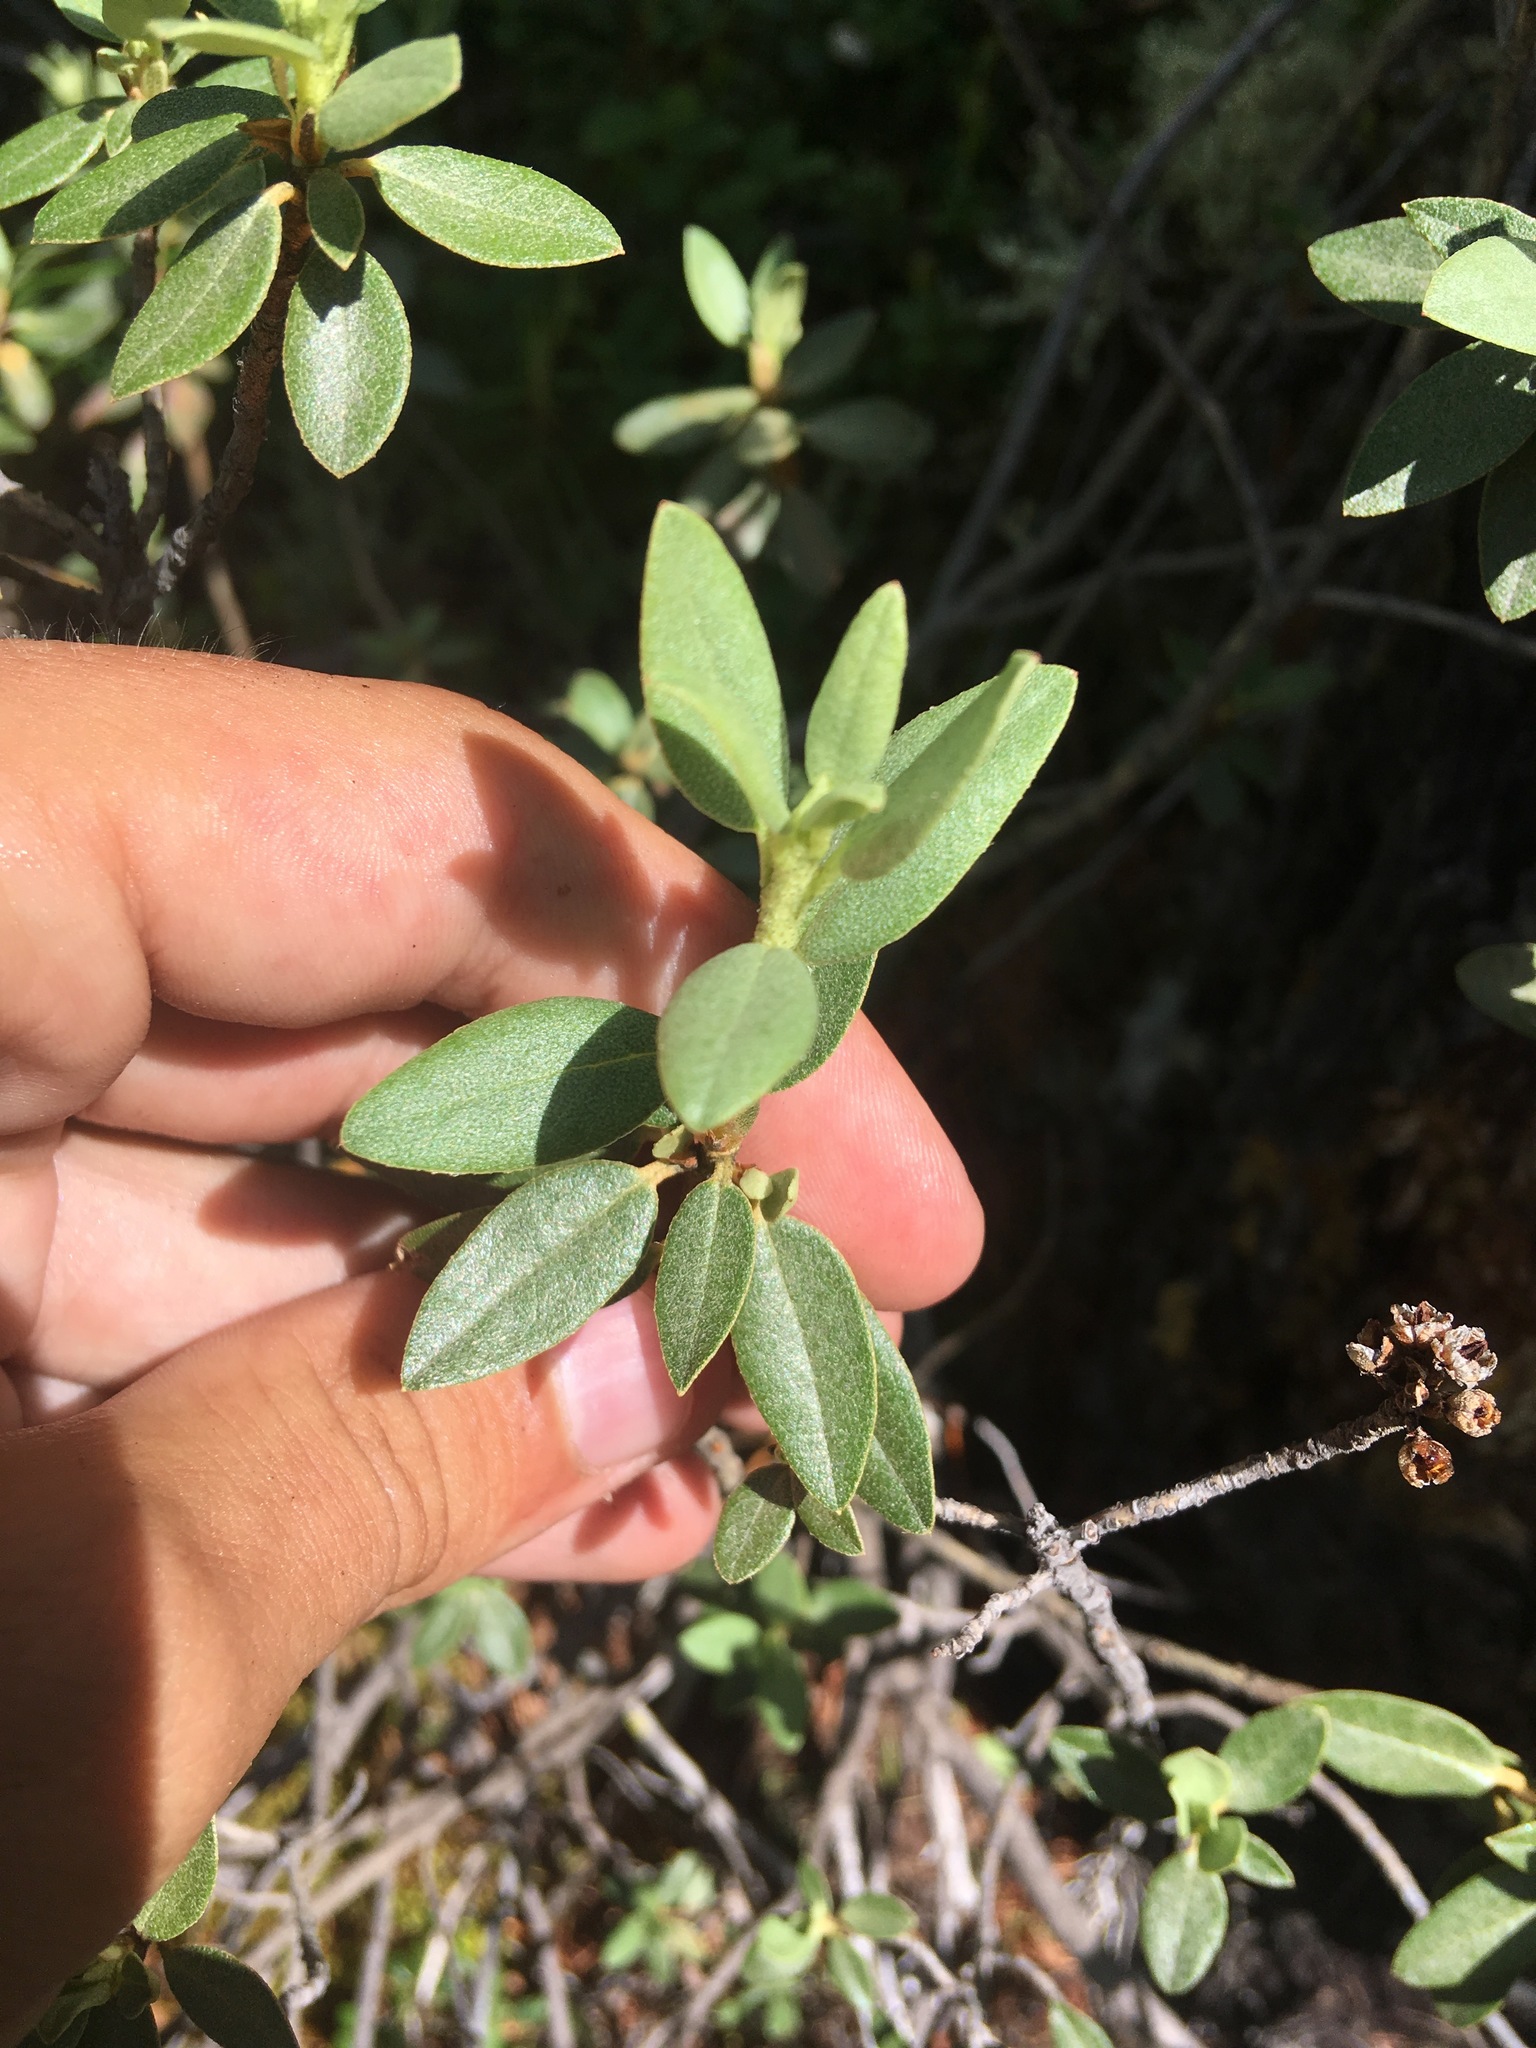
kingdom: Plantae
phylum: Tracheophyta
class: Magnoliopsida
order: Ericales
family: Ericaceae
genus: Rhododendron
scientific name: Rhododendron adamsii
